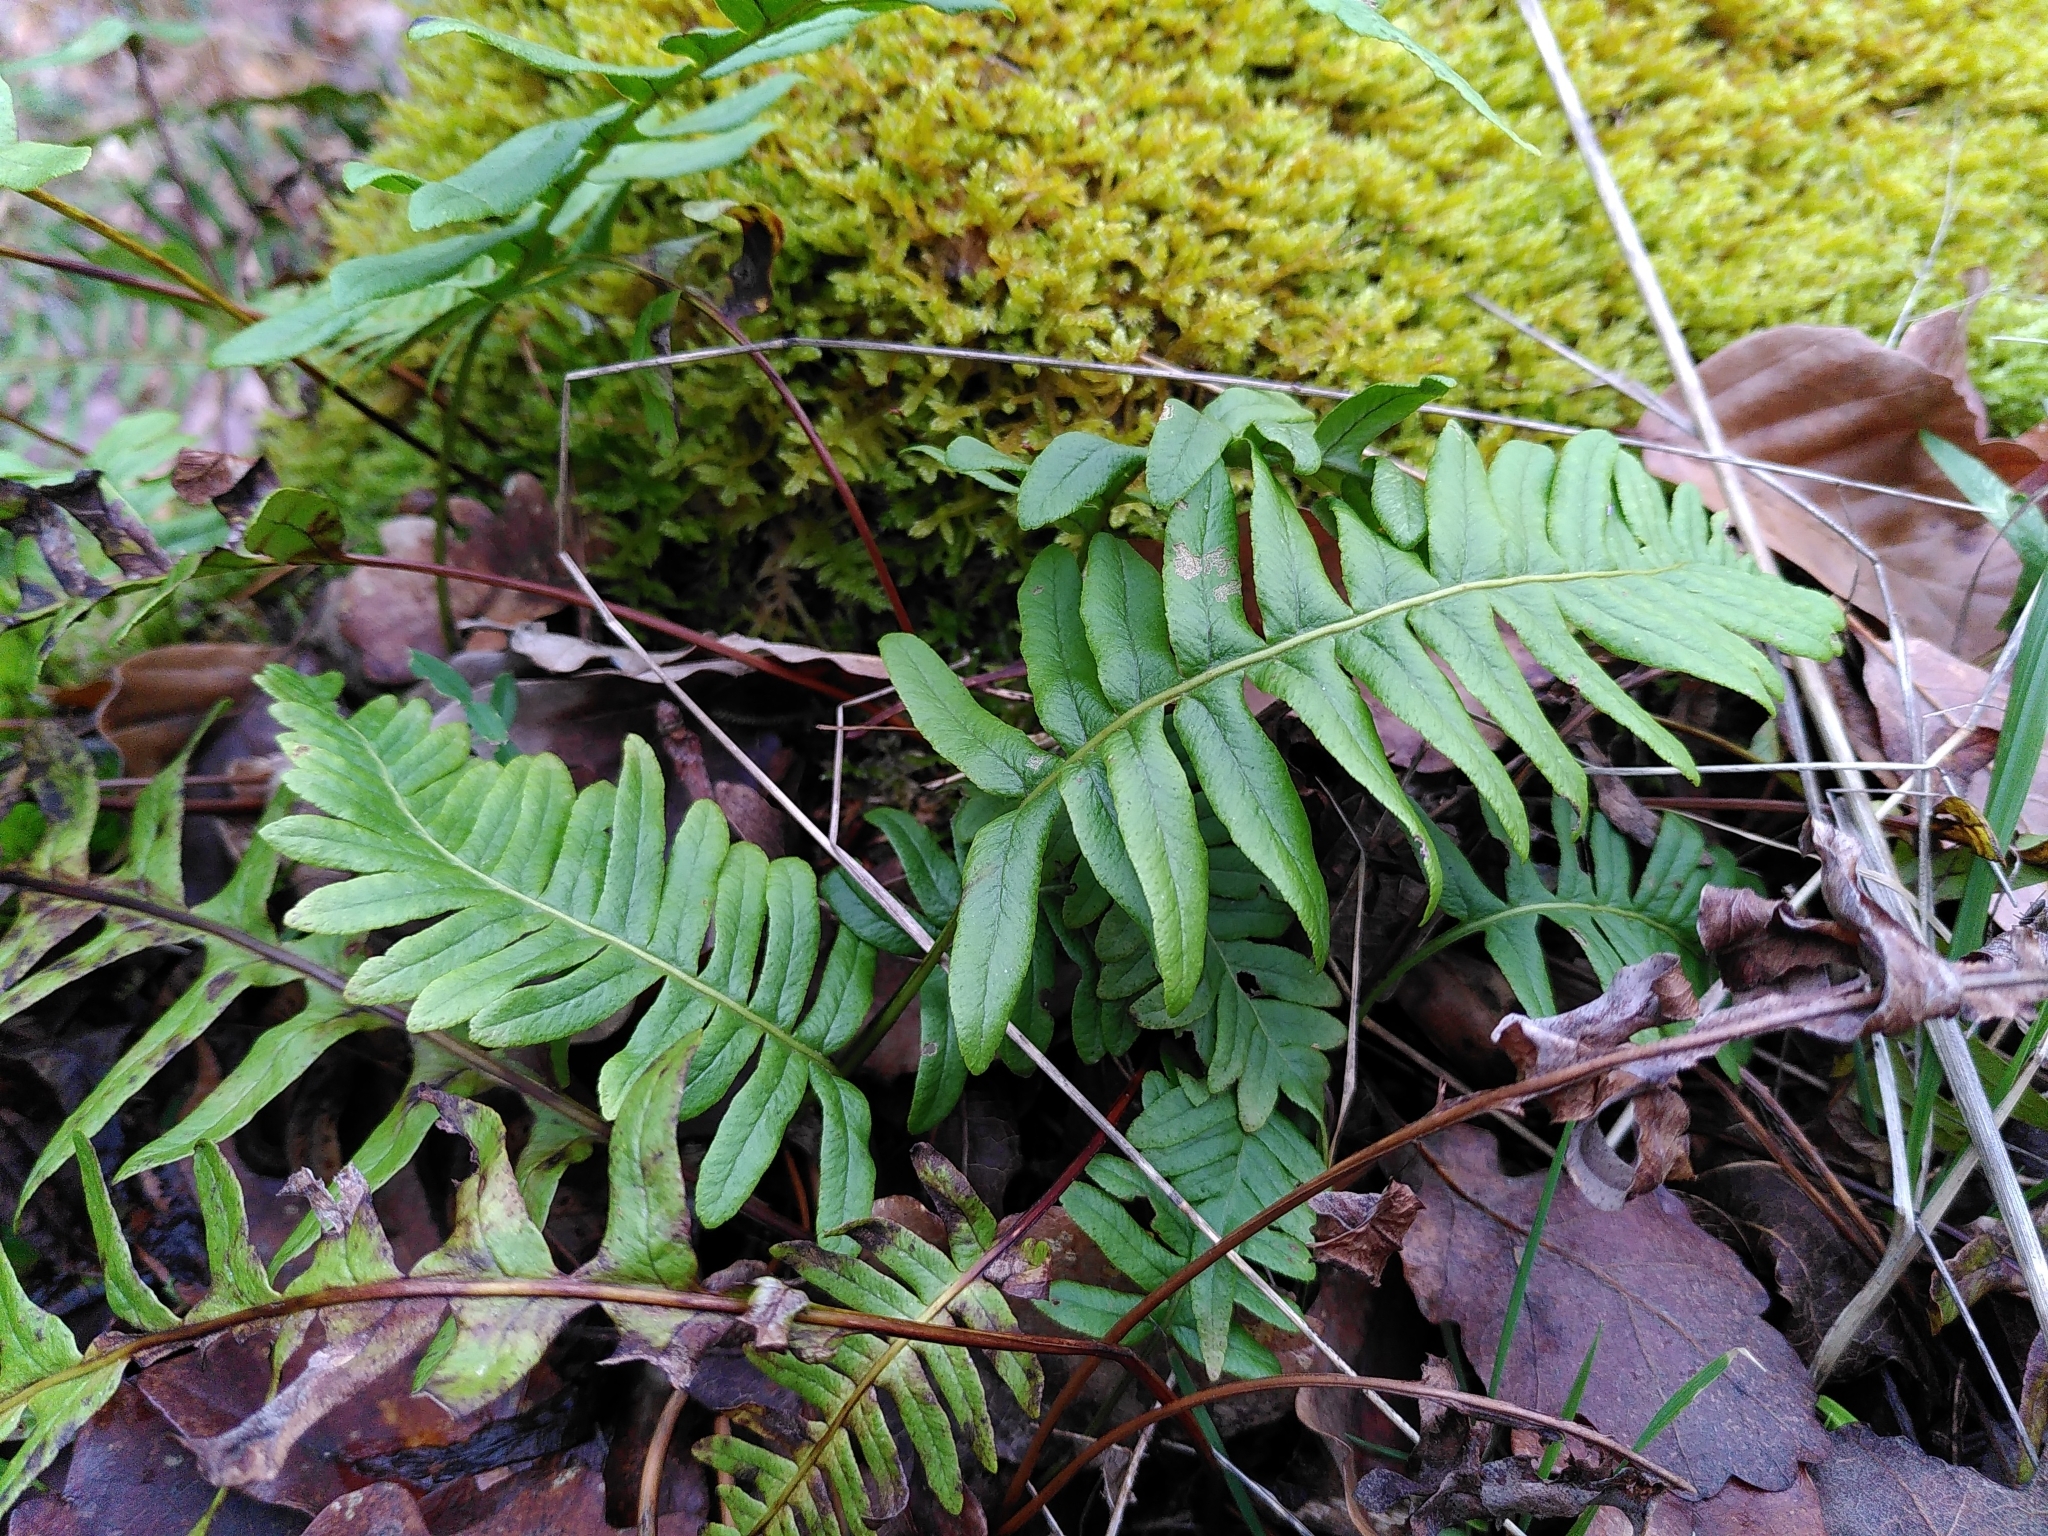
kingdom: Plantae
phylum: Tracheophyta
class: Polypodiopsida
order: Polypodiales
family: Polypodiaceae
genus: Polypodium
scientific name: Polypodium mantoniae
